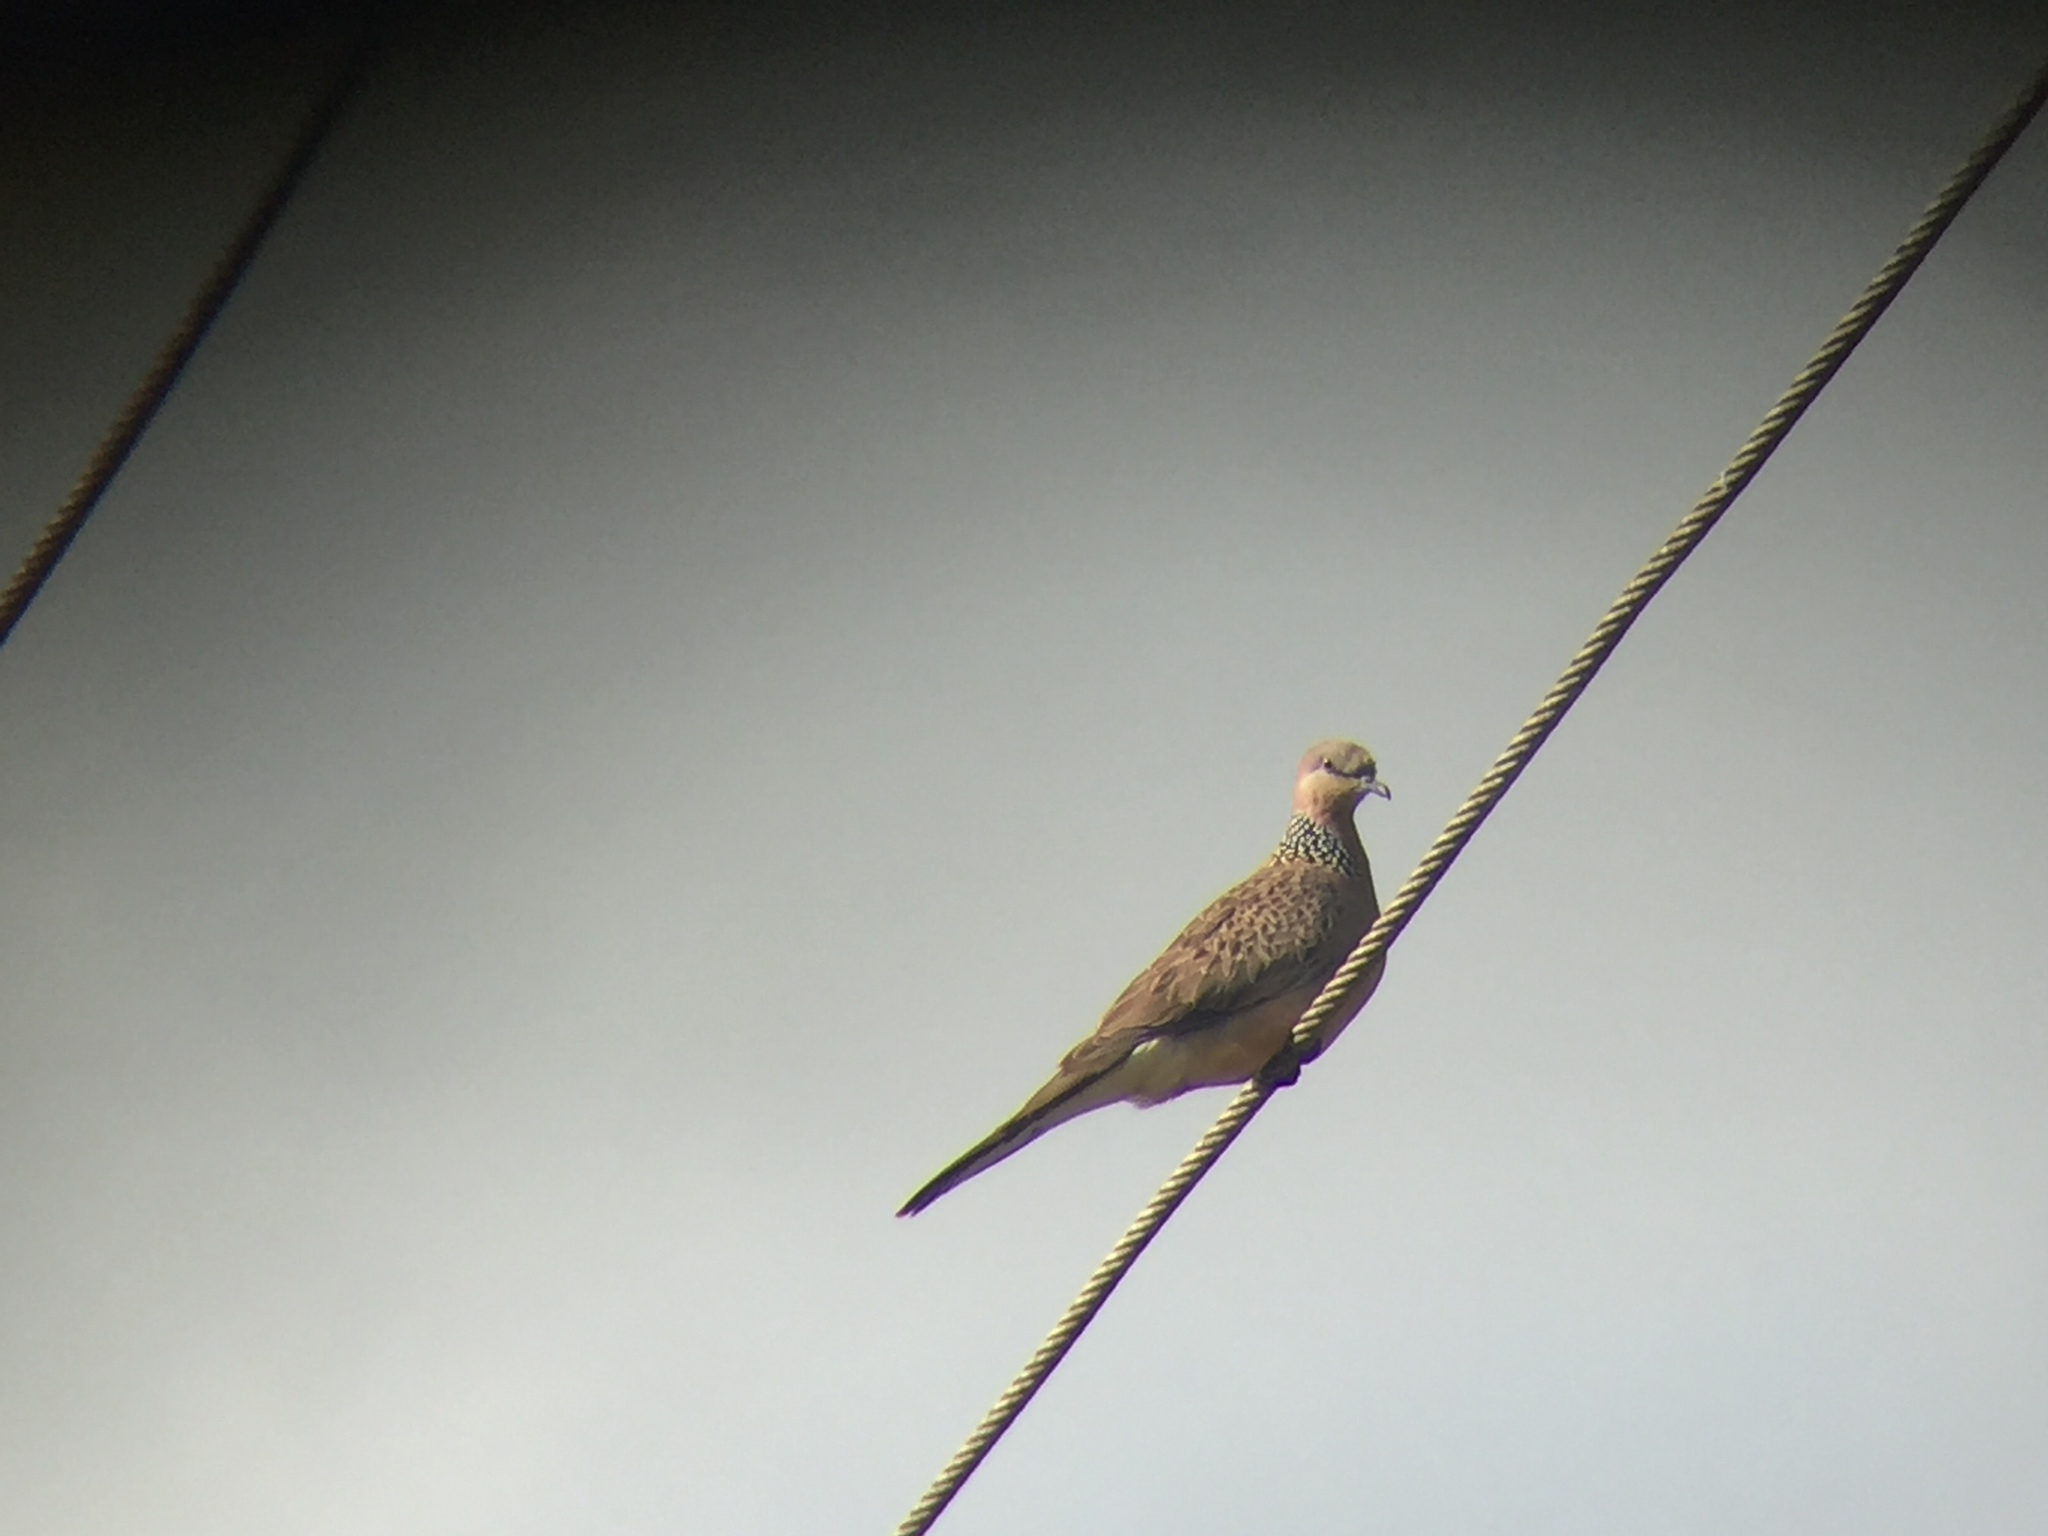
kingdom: Animalia
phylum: Chordata
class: Aves
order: Columbiformes
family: Columbidae
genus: Spilopelia
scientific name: Spilopelia chinensis
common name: Spotted dove
